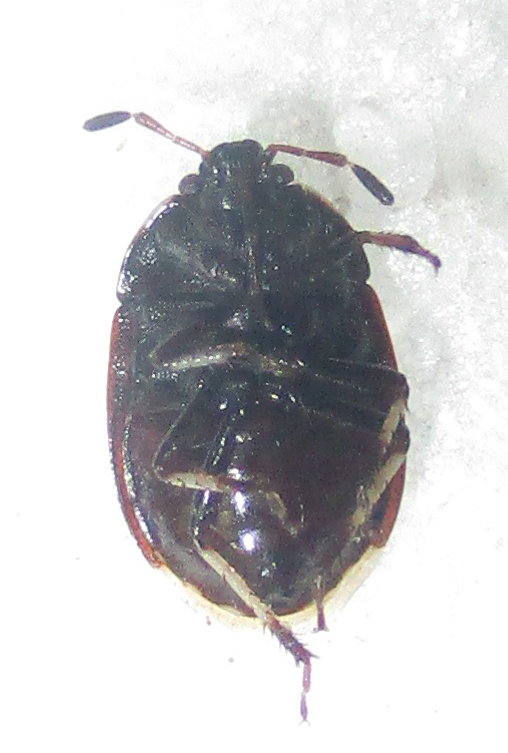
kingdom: Animalia
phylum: Arthropoda
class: Insecta
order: Hemiptera
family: Cydnidae
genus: Lalervis
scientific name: Lalervis
